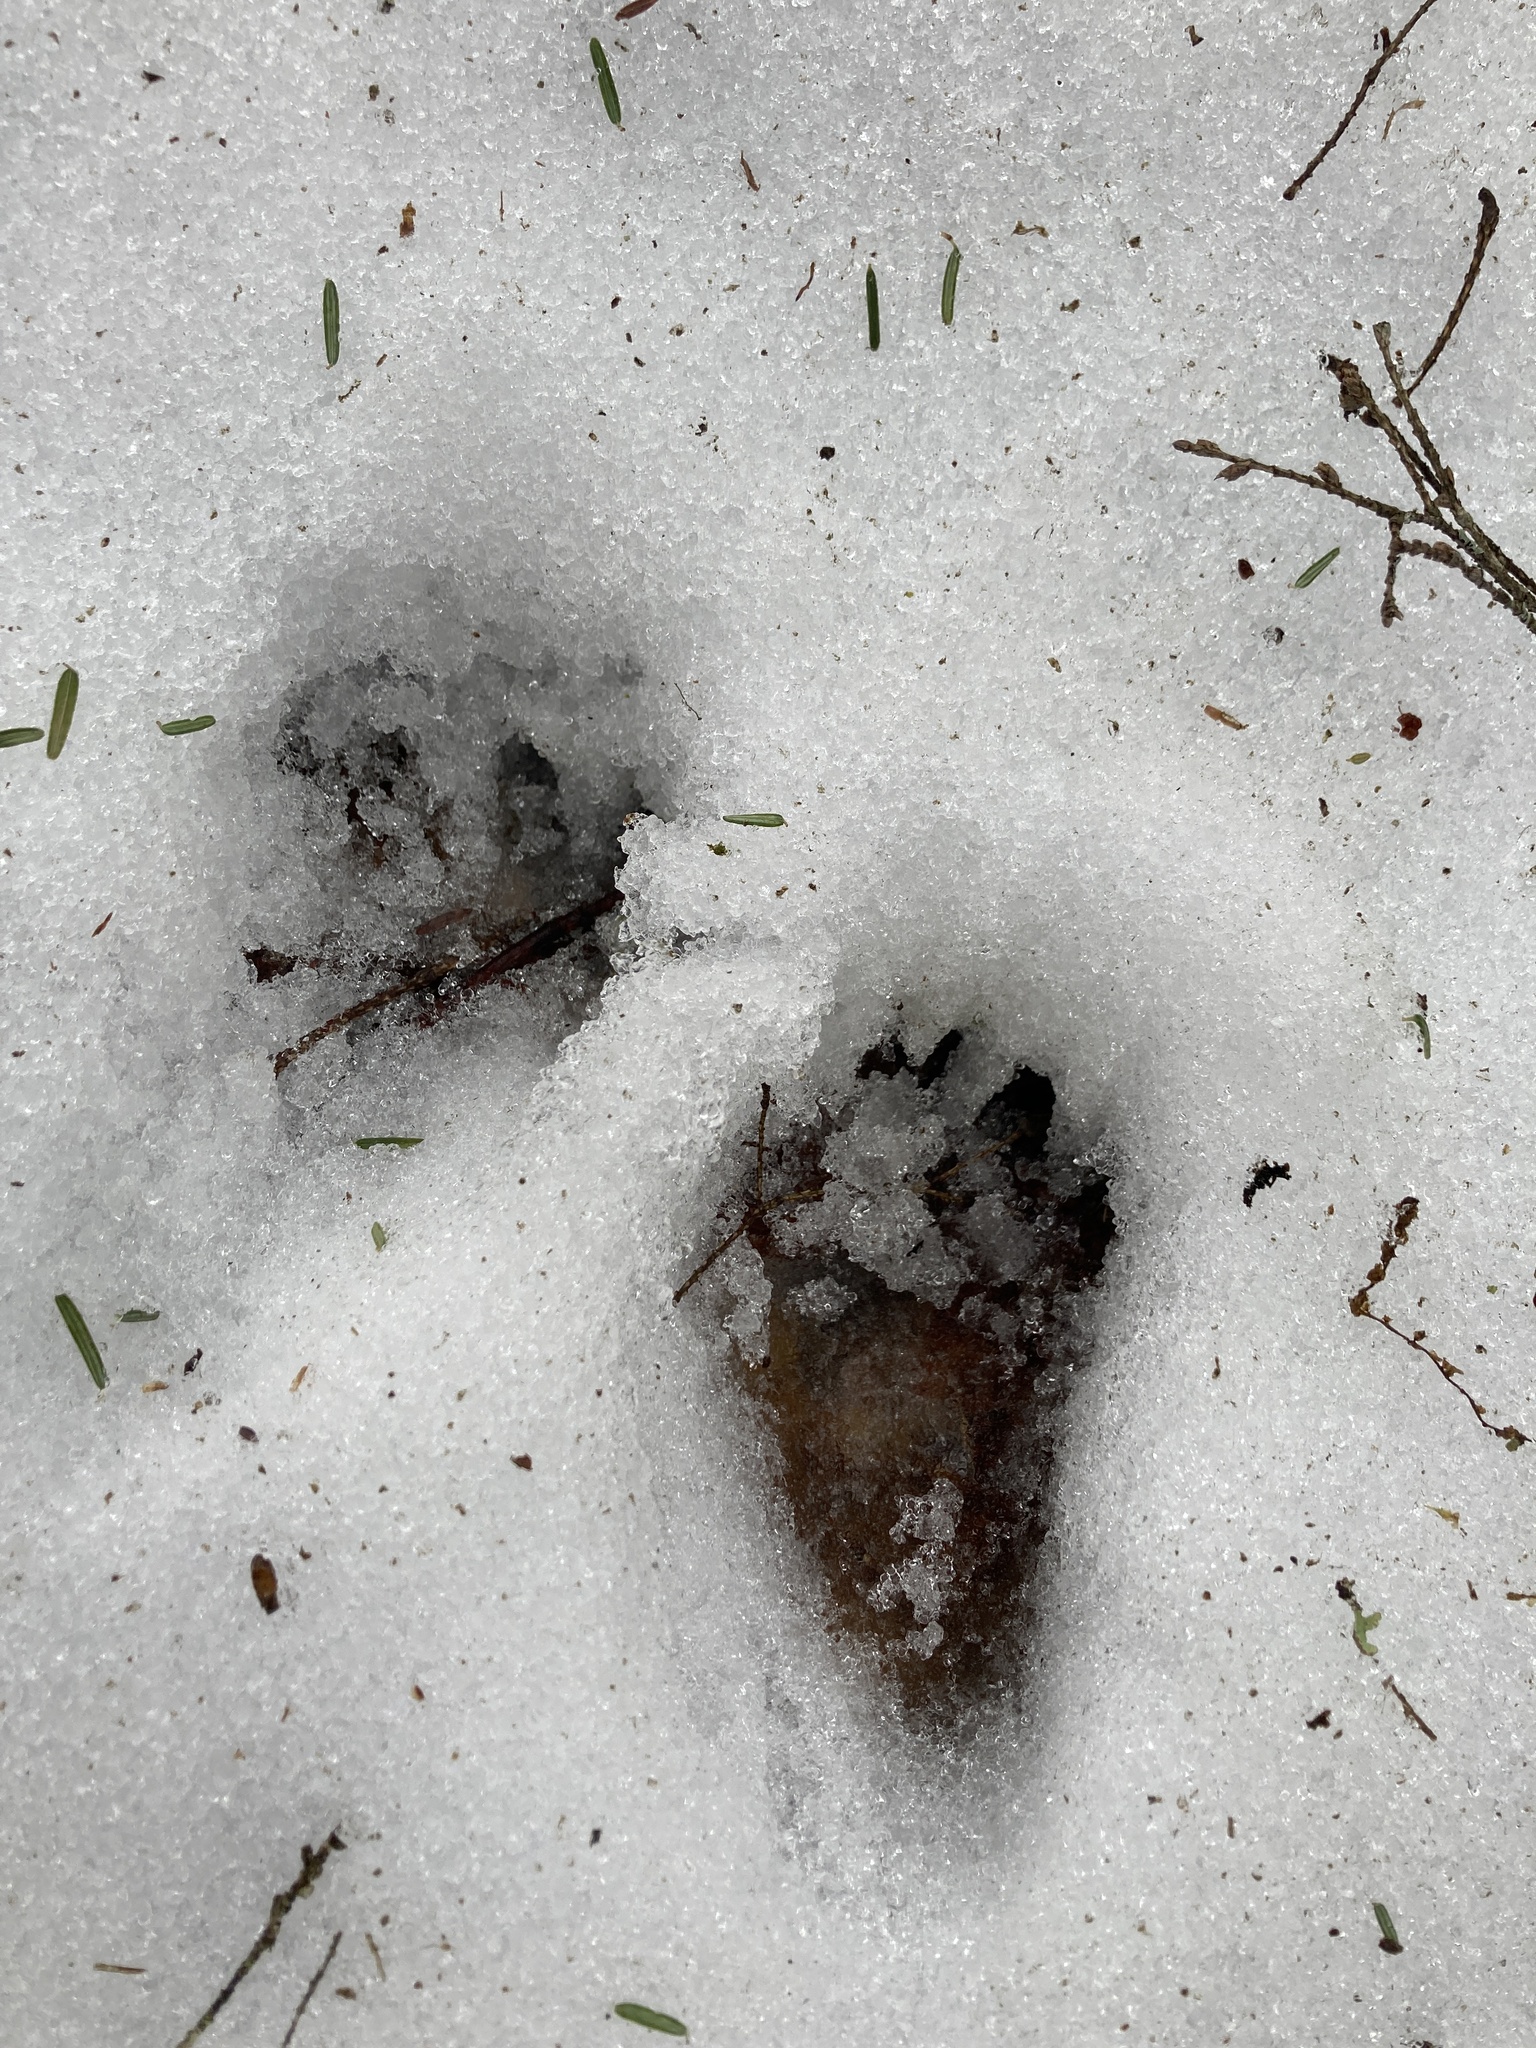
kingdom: Animalia
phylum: Chordata
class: Mammalia
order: Carnivora
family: Procyonidae
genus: Procyon
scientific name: Procyon lotor
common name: Raccoon
